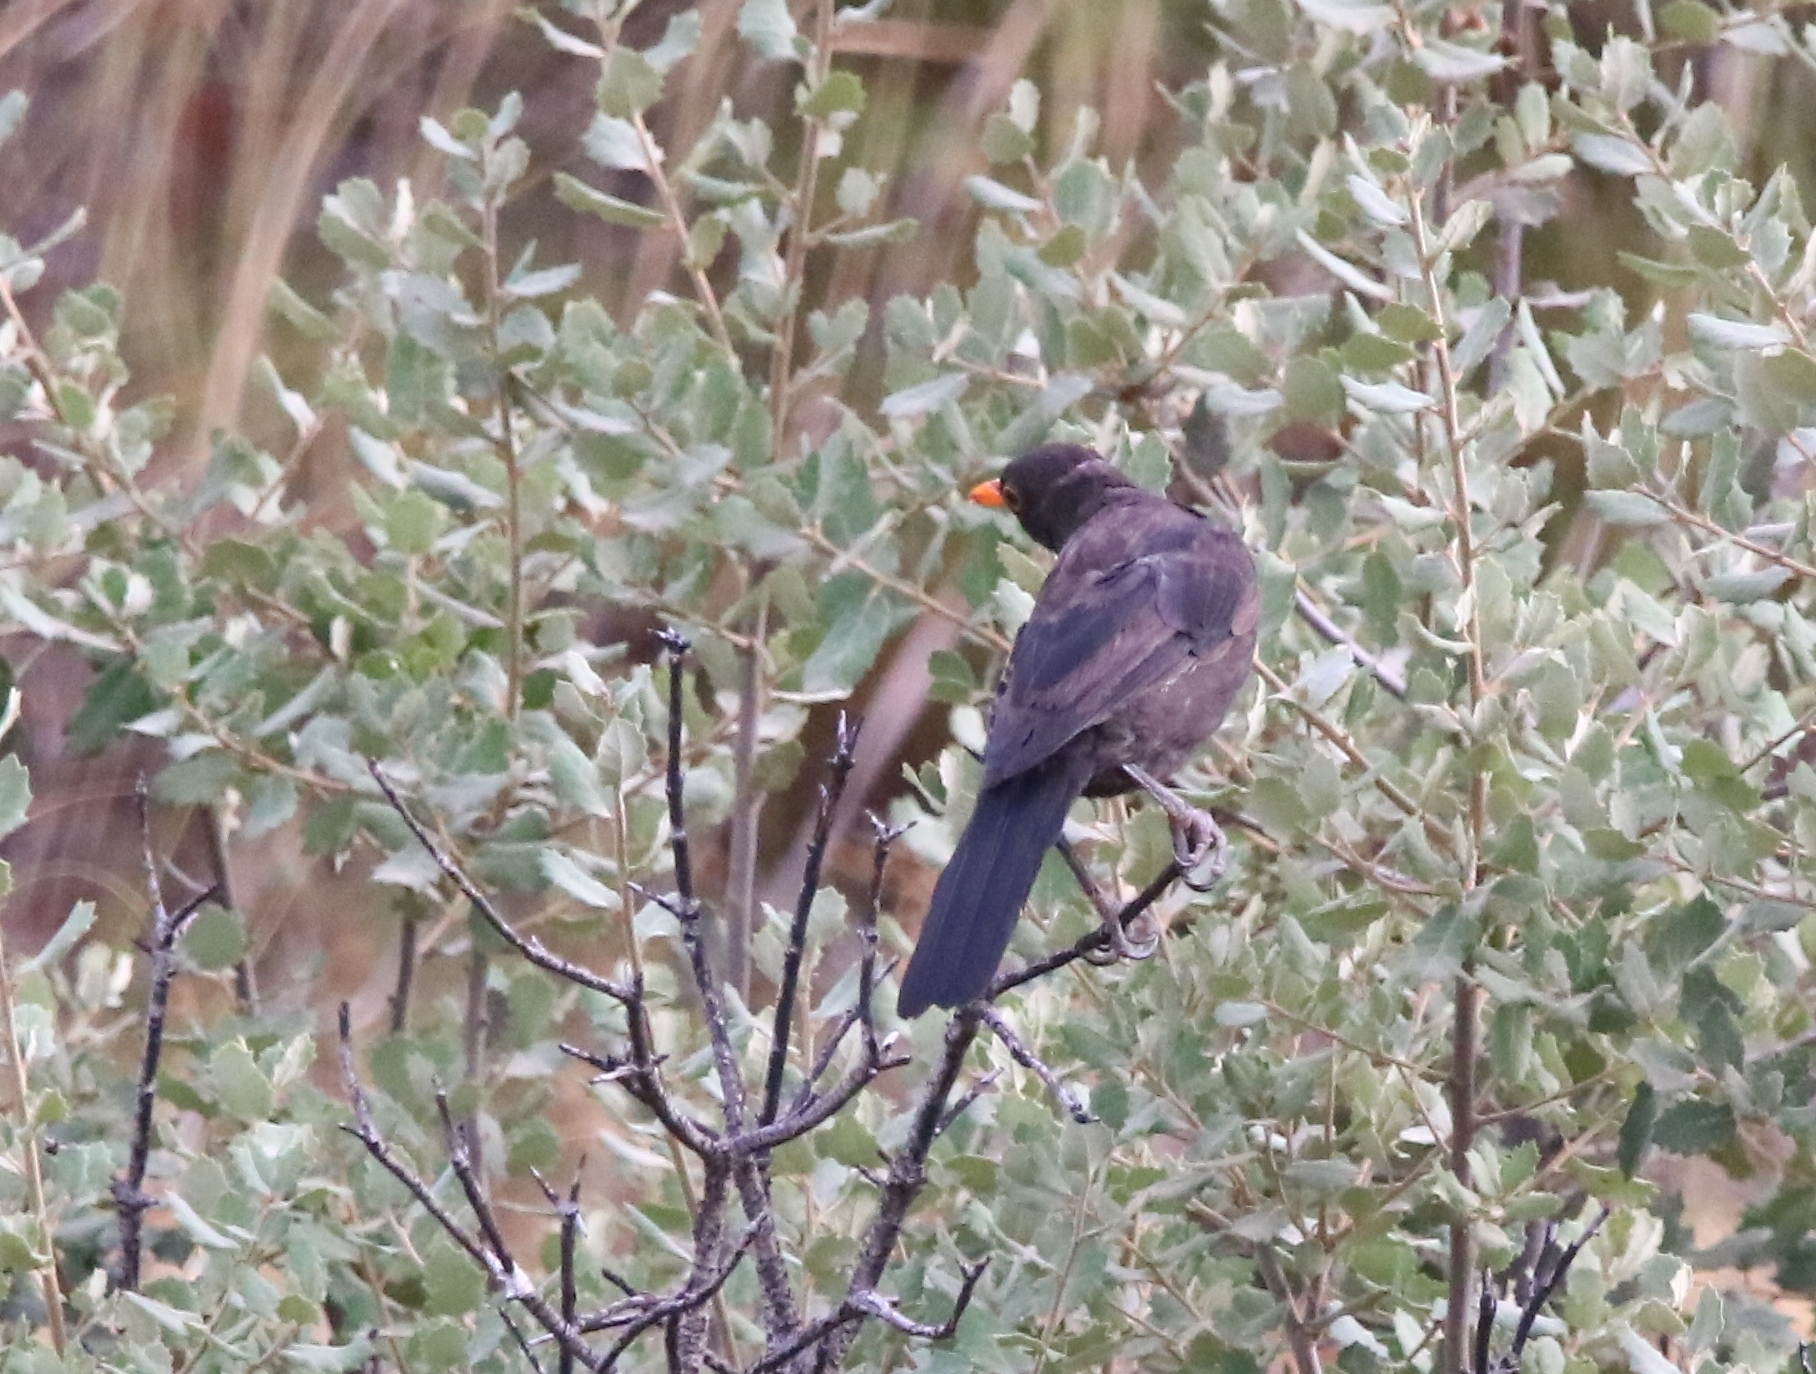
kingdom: Animalia
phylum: Chordata
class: Aves
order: Passeriformes
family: Turdidae
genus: Turdus
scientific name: Turdus merula
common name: Common blackbird
